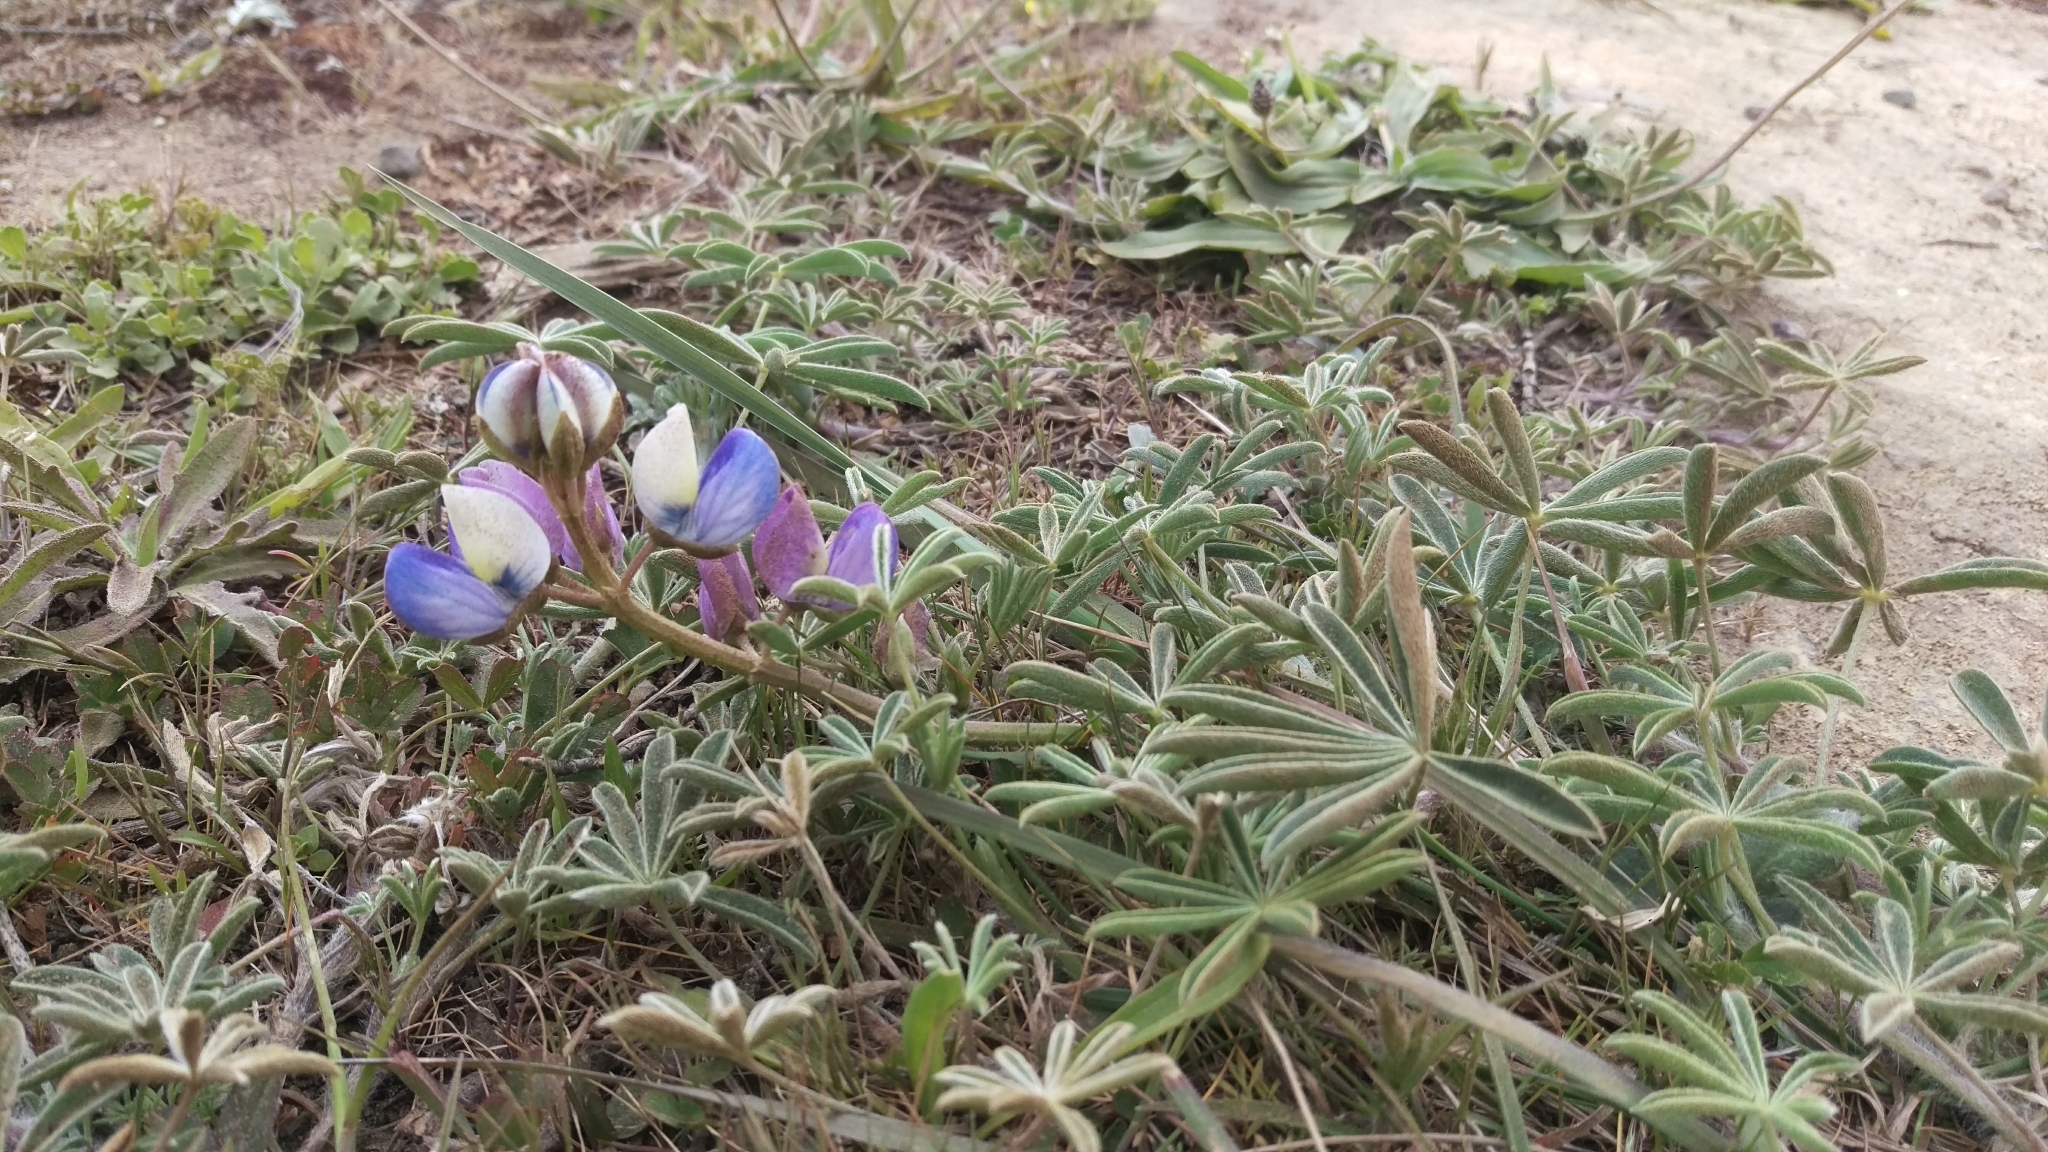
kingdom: Plantae
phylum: Tracheophyta
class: Magnoliopsida
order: Fabales
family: Fabaceae
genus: Lupinus
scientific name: Lupinus variicolor
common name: Lindley's varied lupine
